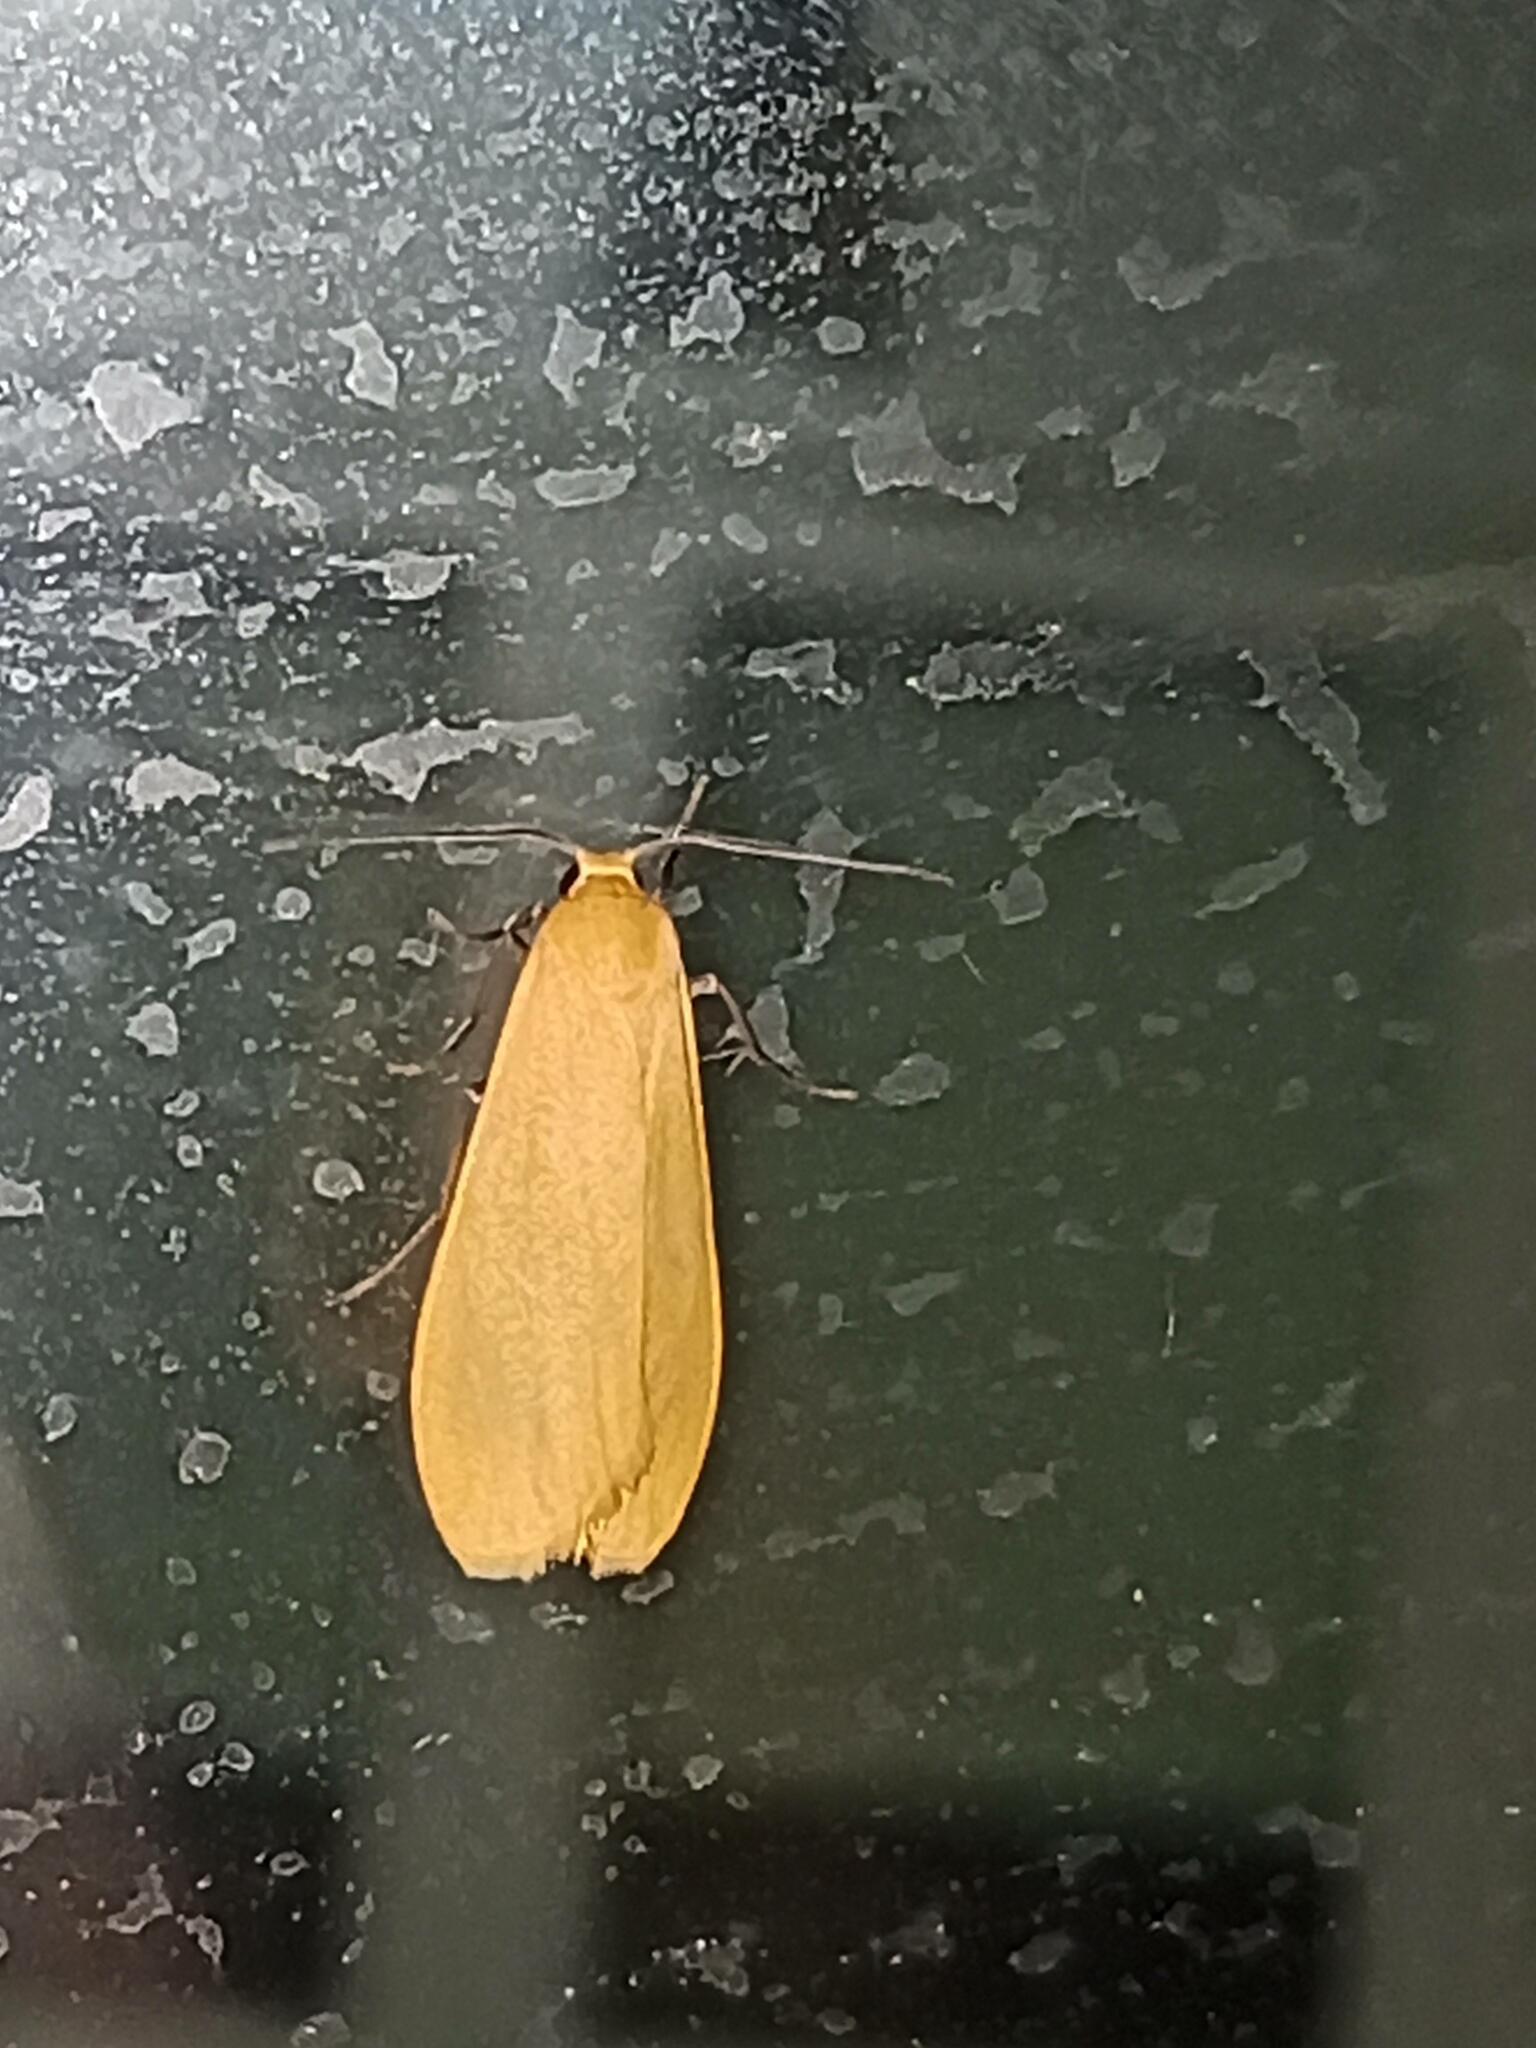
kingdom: Animalia
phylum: Arthropoda
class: Insecta
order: Lepidoptera
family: Erebidae
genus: Wittia
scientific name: Wittia sororcula
